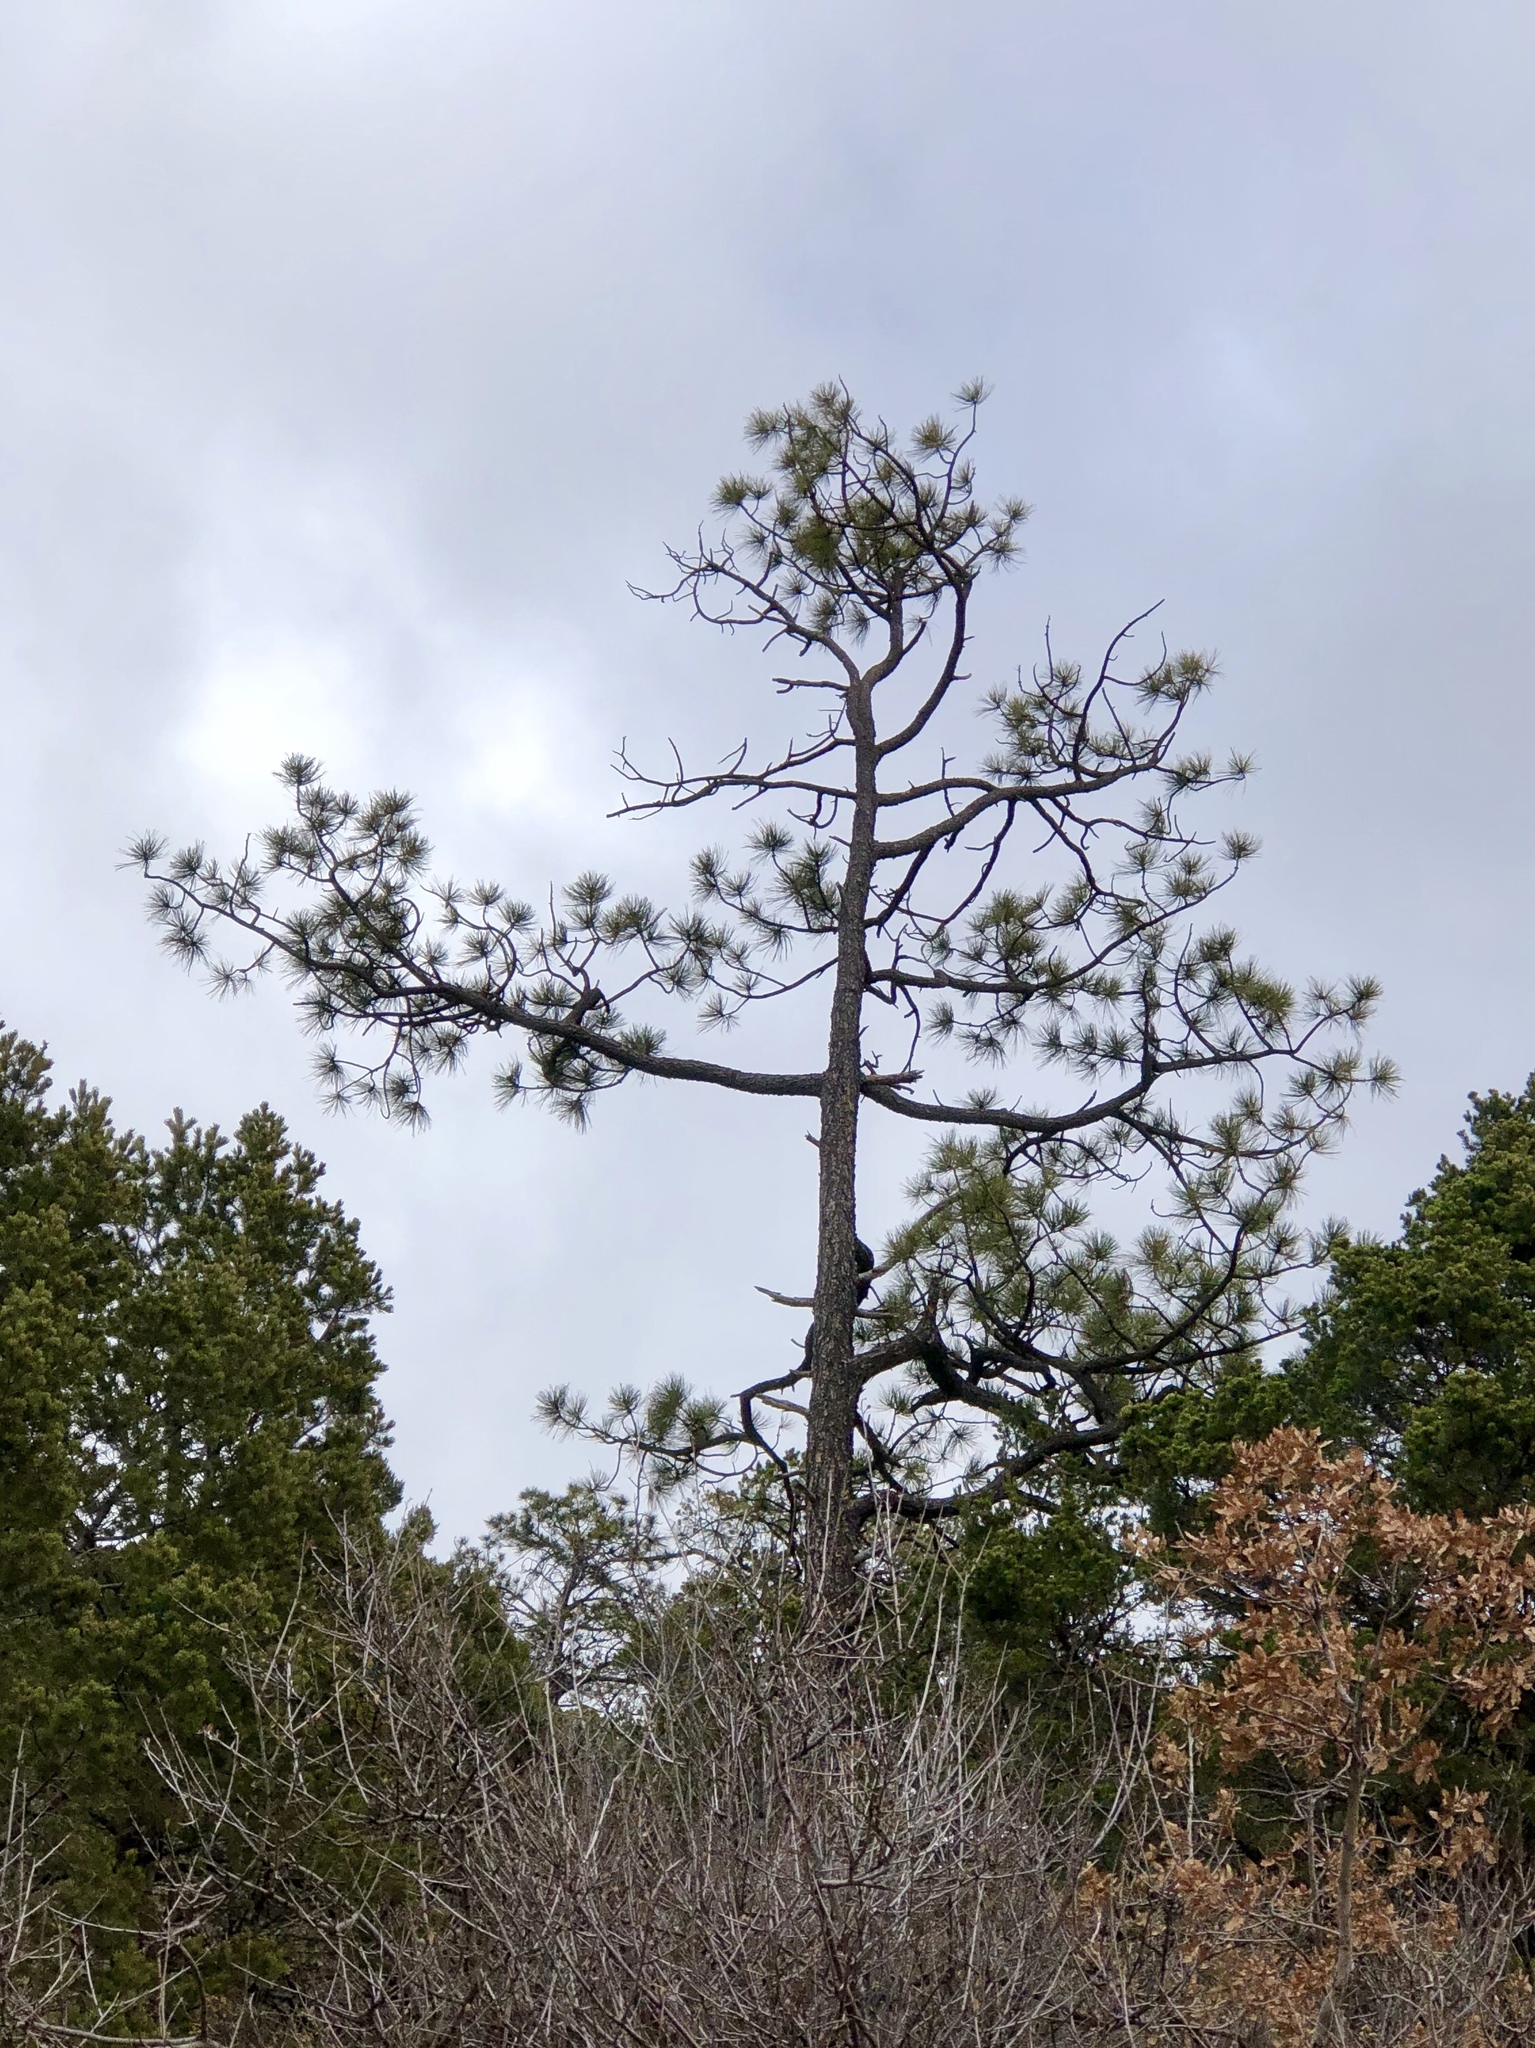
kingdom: Plantae
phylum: Tracheophyta
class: Pinopsida
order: Pinales
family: Pinaceae
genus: Pinus
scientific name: Pinus ponderosa
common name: Western yellow-pine
